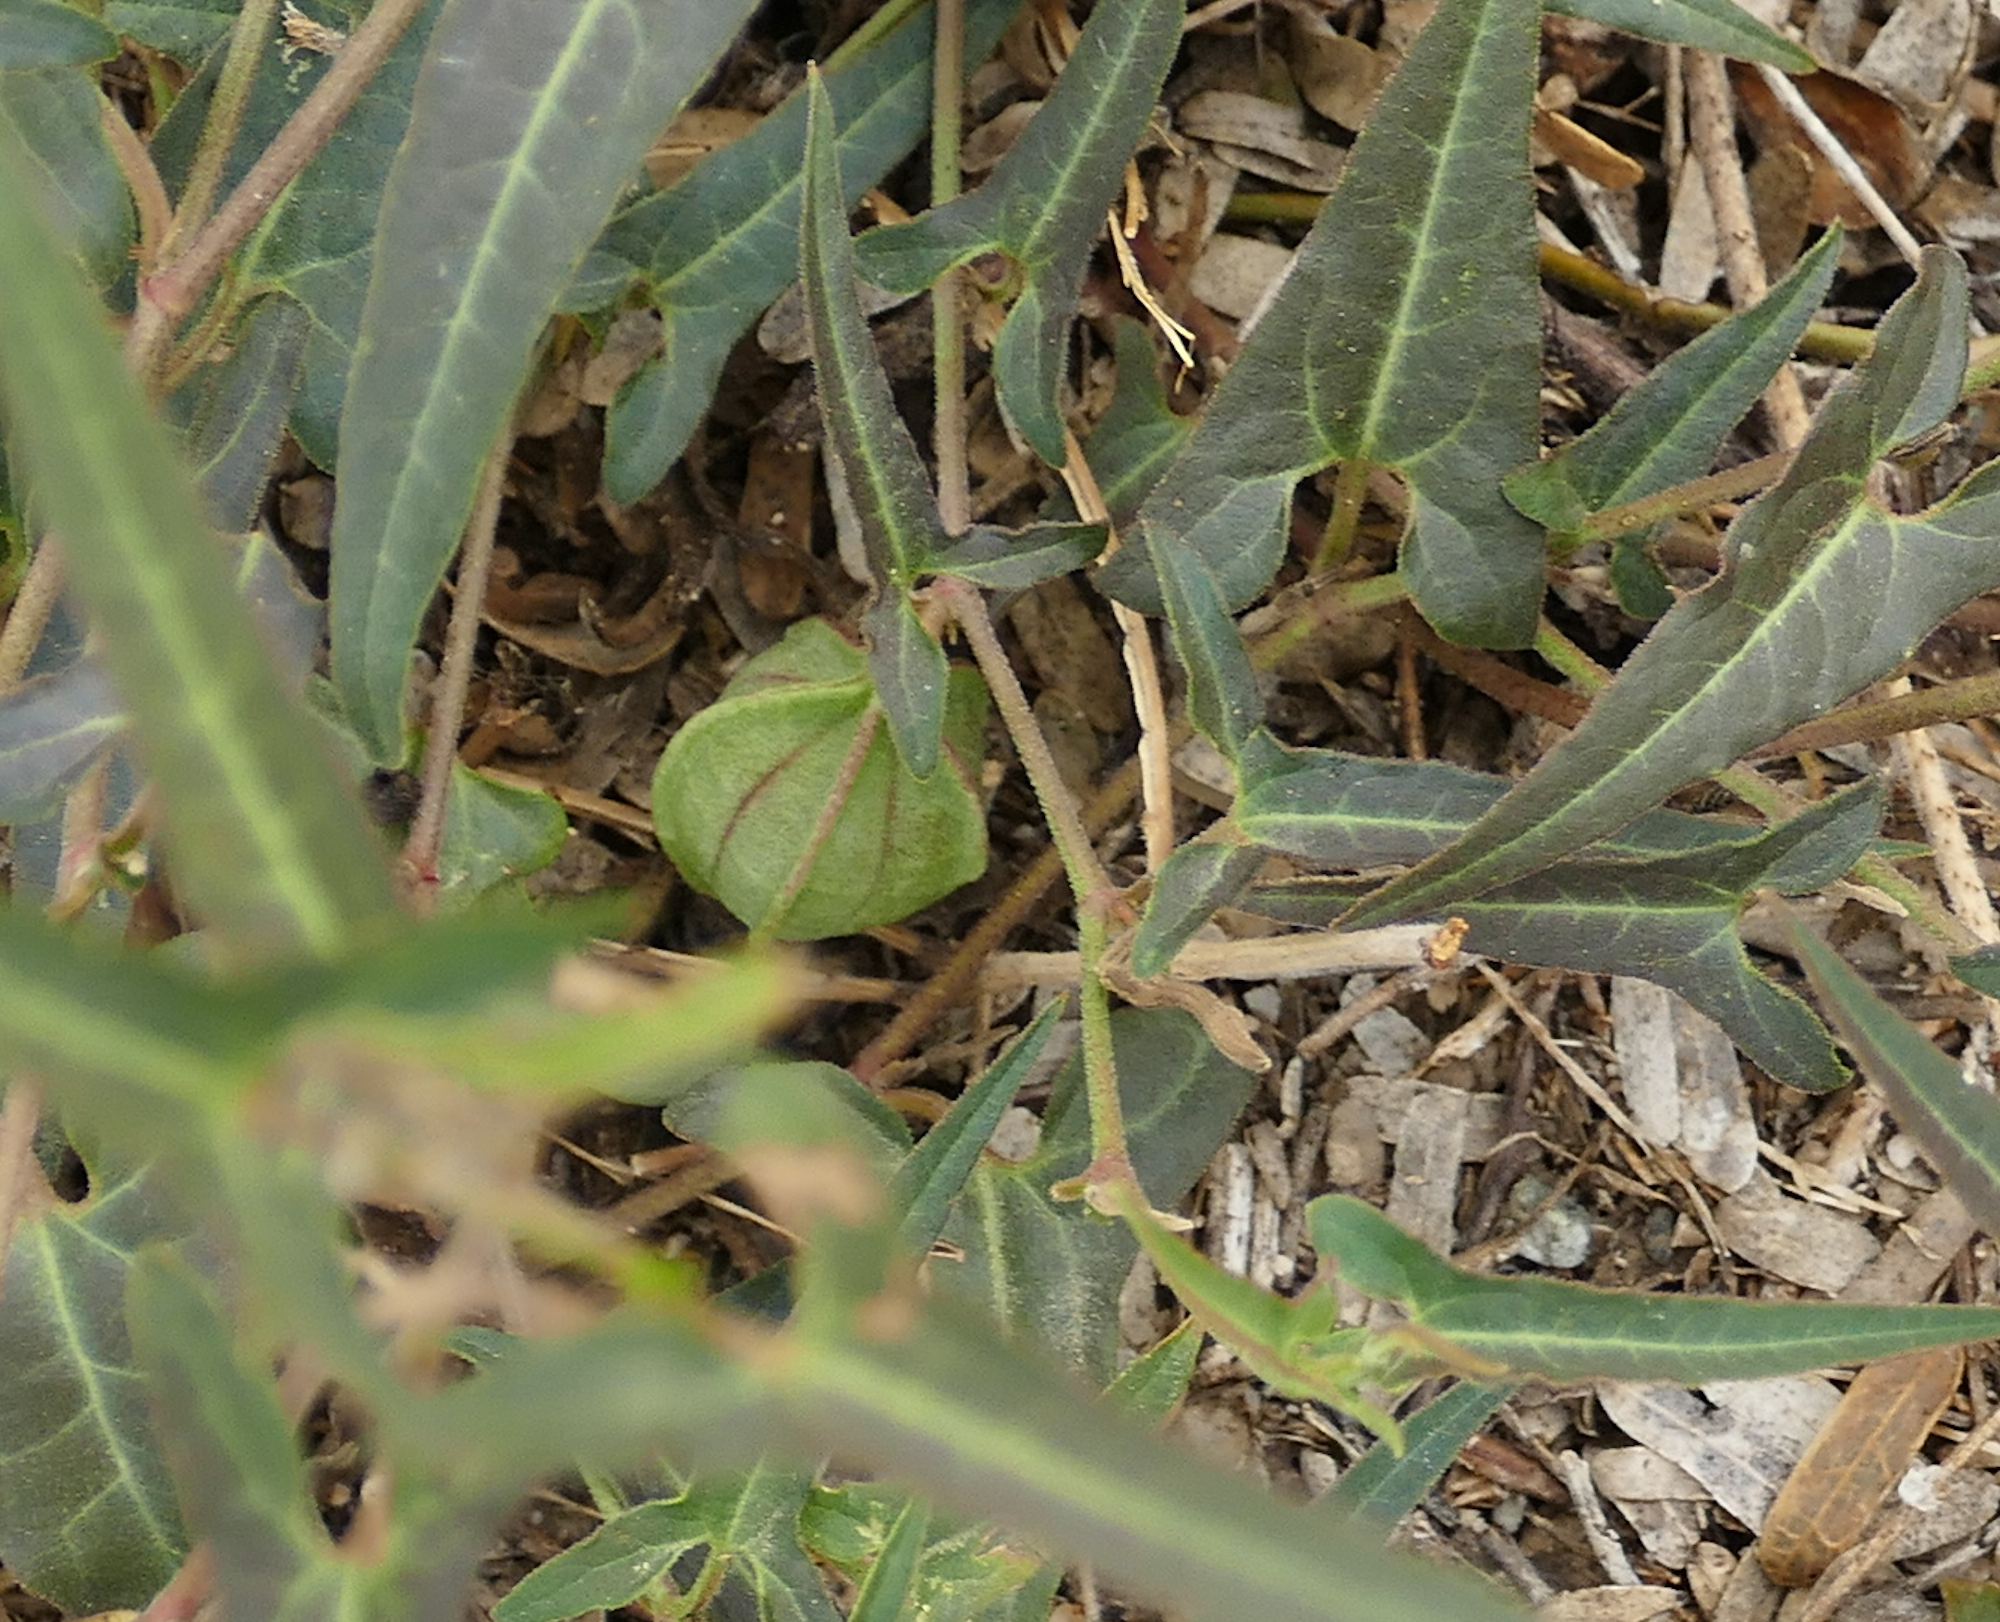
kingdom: Plantae
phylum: Tracheophyta
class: Magnoliopsida
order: Piperales
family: Aristolochiaceae
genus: Aristolochia
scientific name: Aristolochia watsonii
